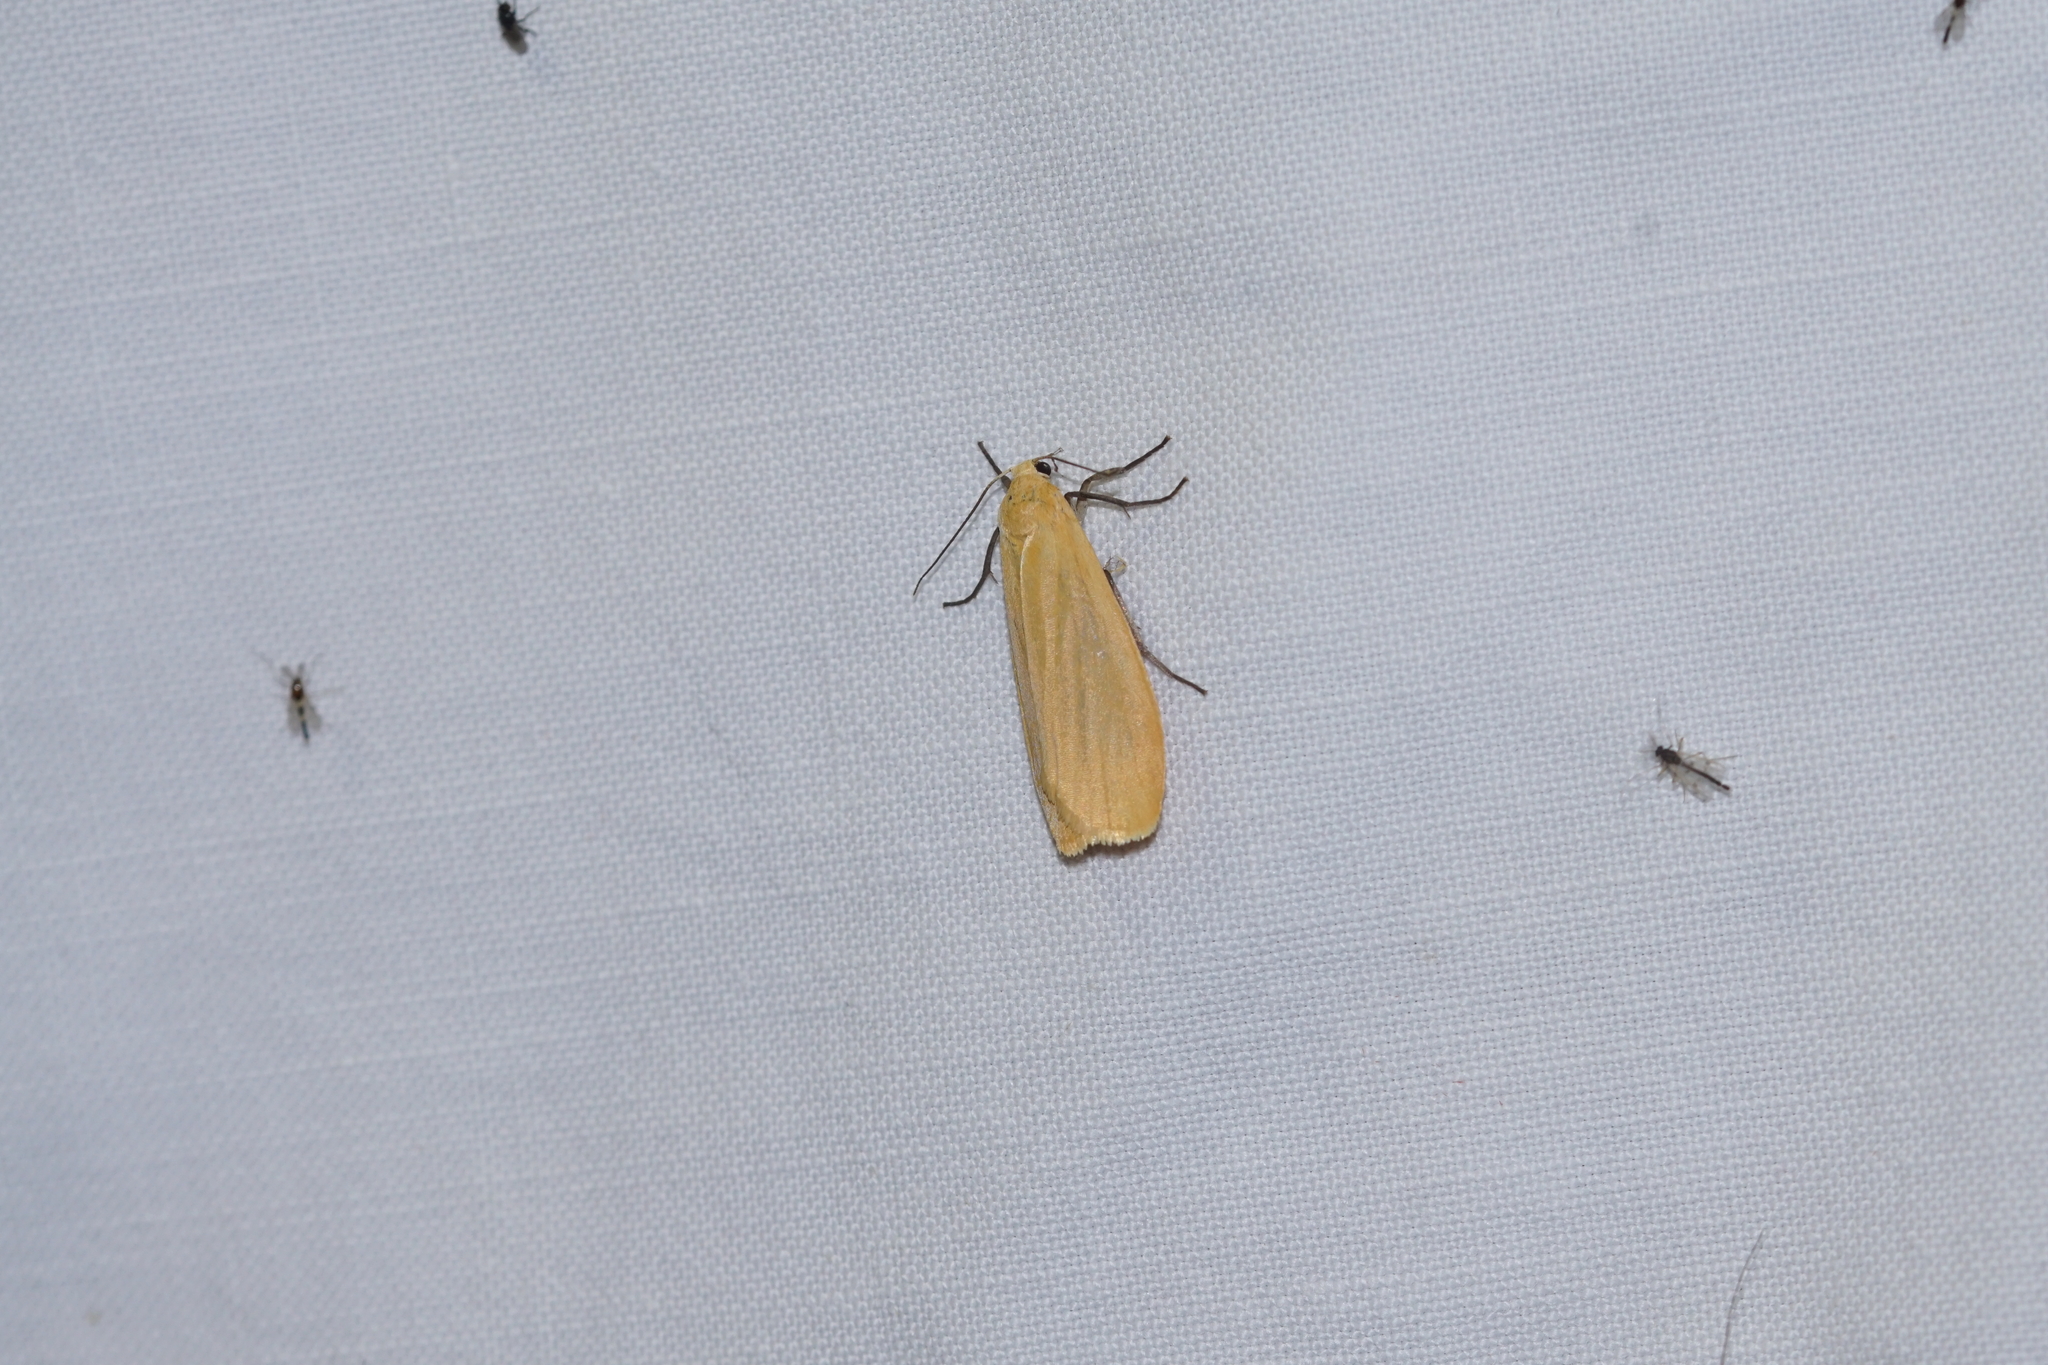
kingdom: Animalia
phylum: Arthropoda
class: Insecta
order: Lepidoptera
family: Erebidae
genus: Wittia
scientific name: Wittia sororcula
